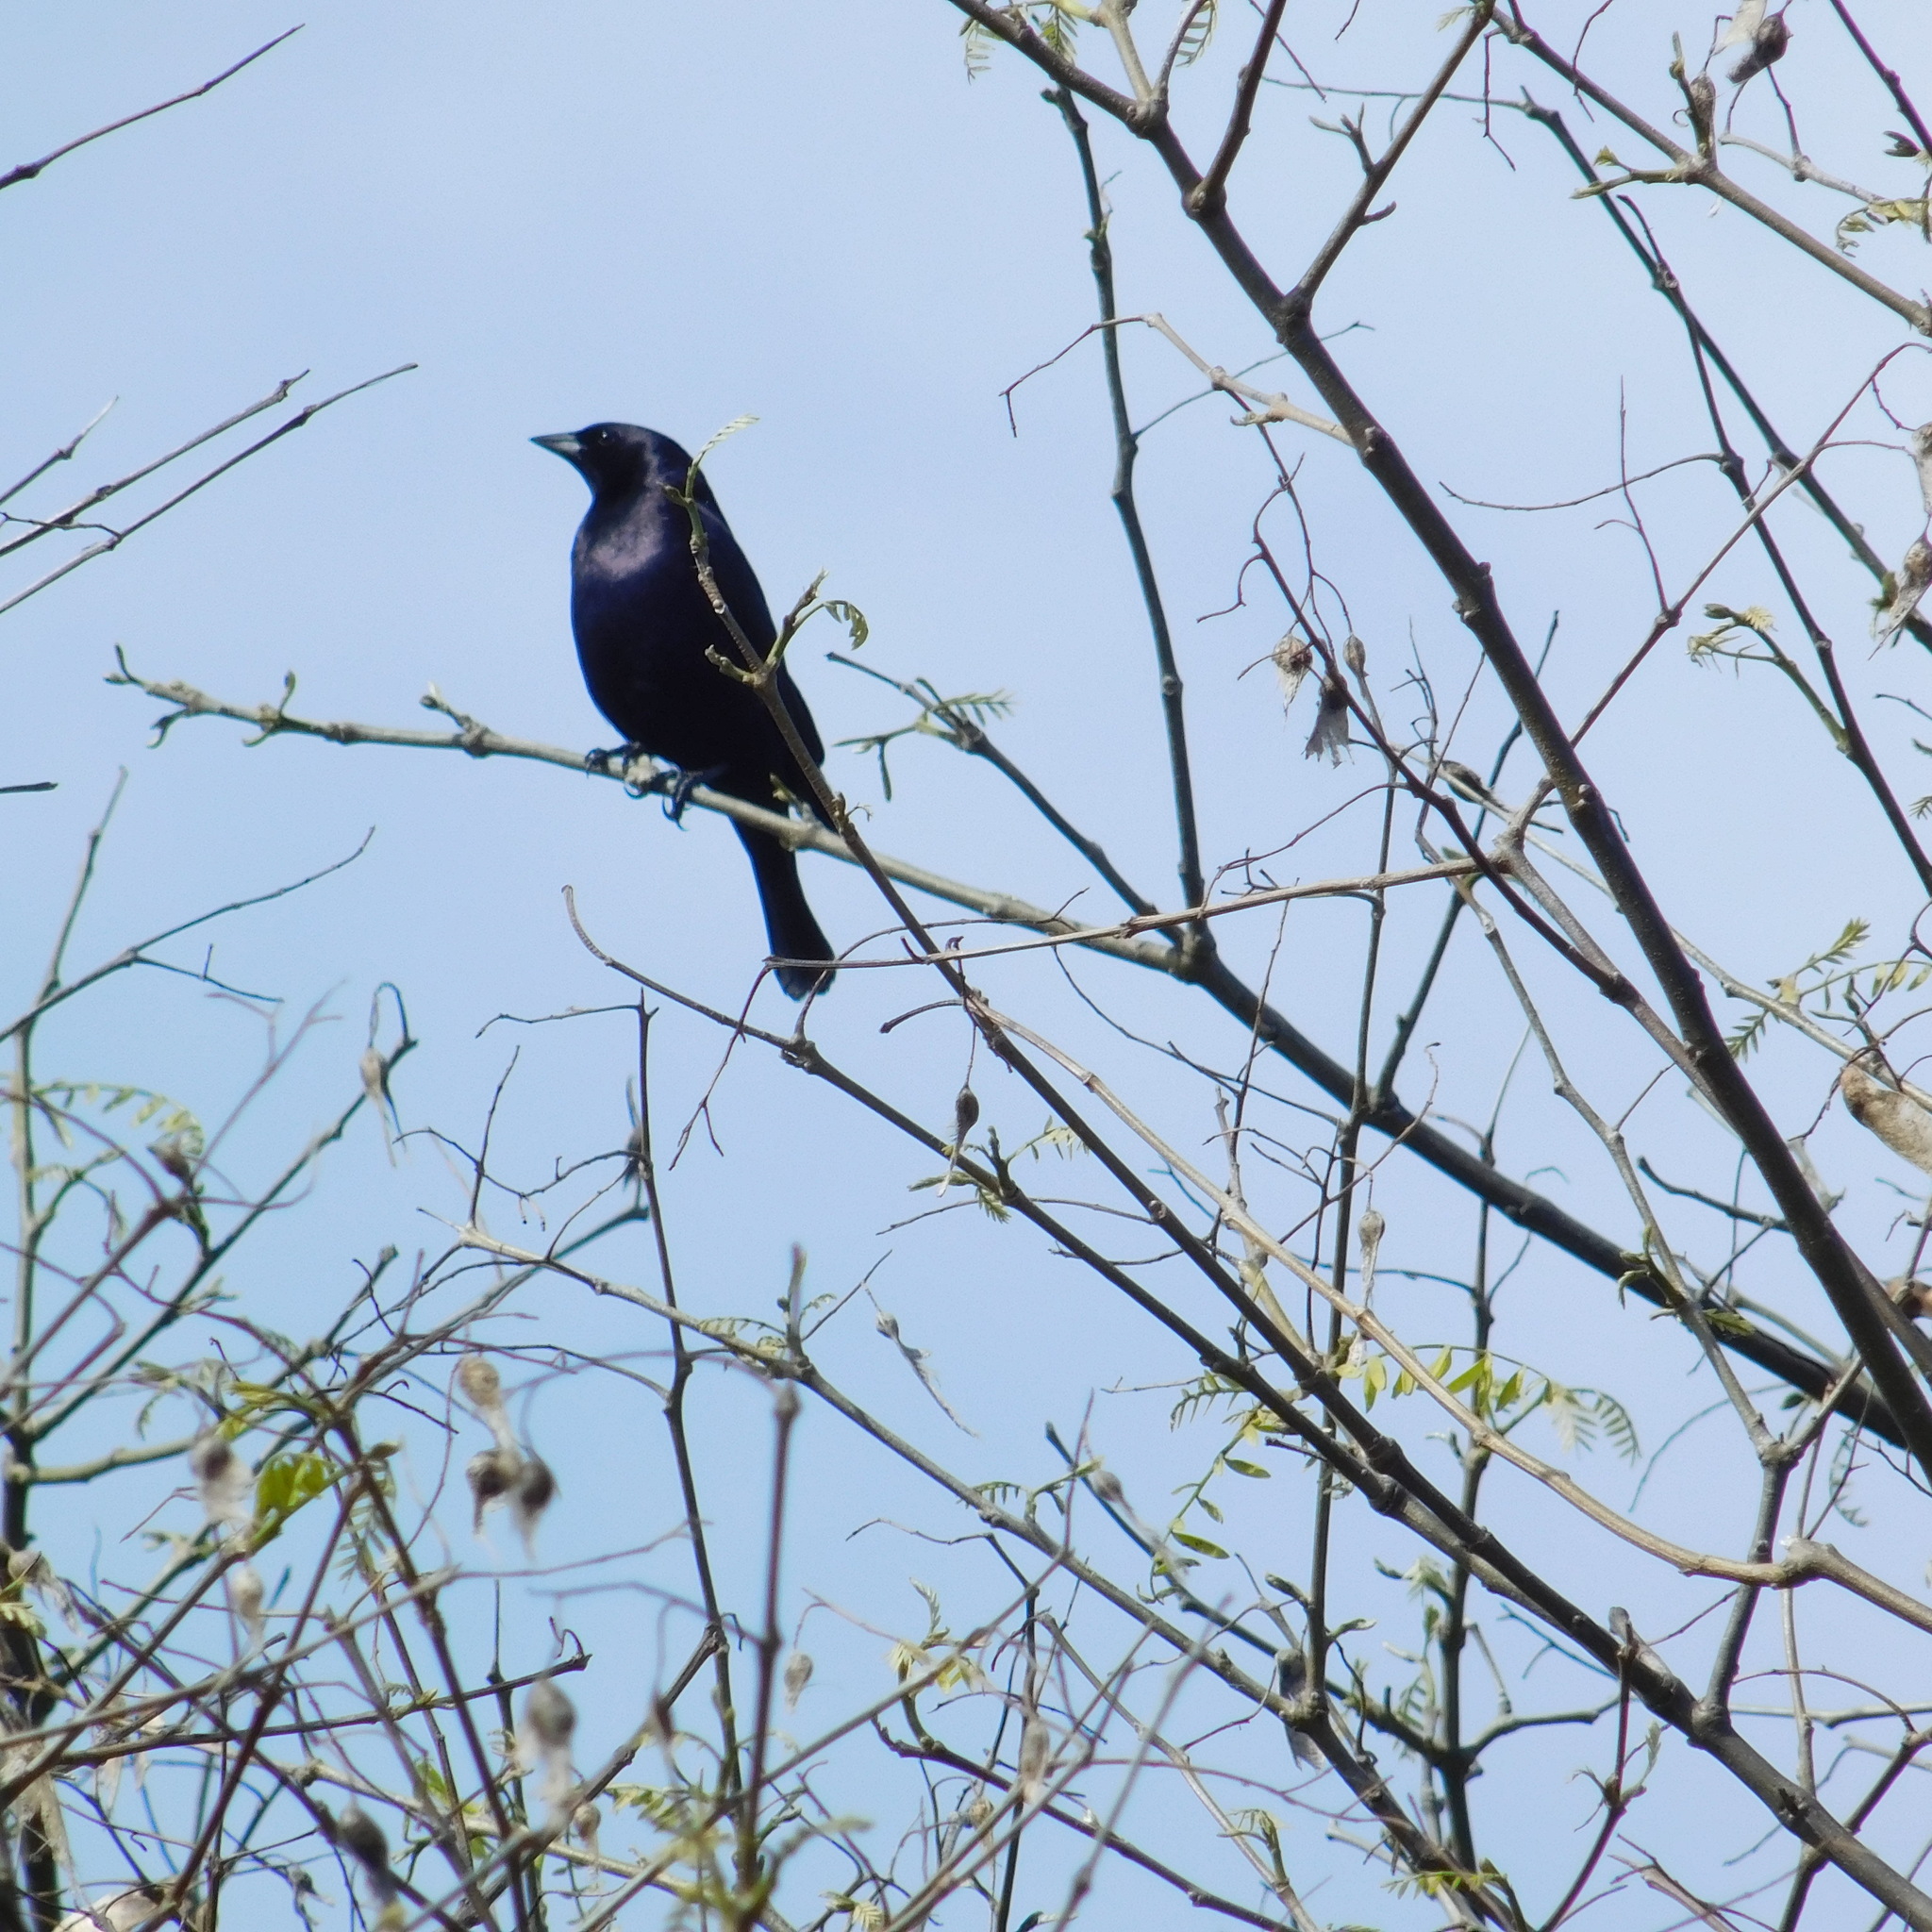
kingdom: Animalia
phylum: Chordata
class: Aves
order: Passeriformes
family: Icteridae
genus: Molothrus
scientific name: Molothrus bonariensis
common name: Shiny cowbird
